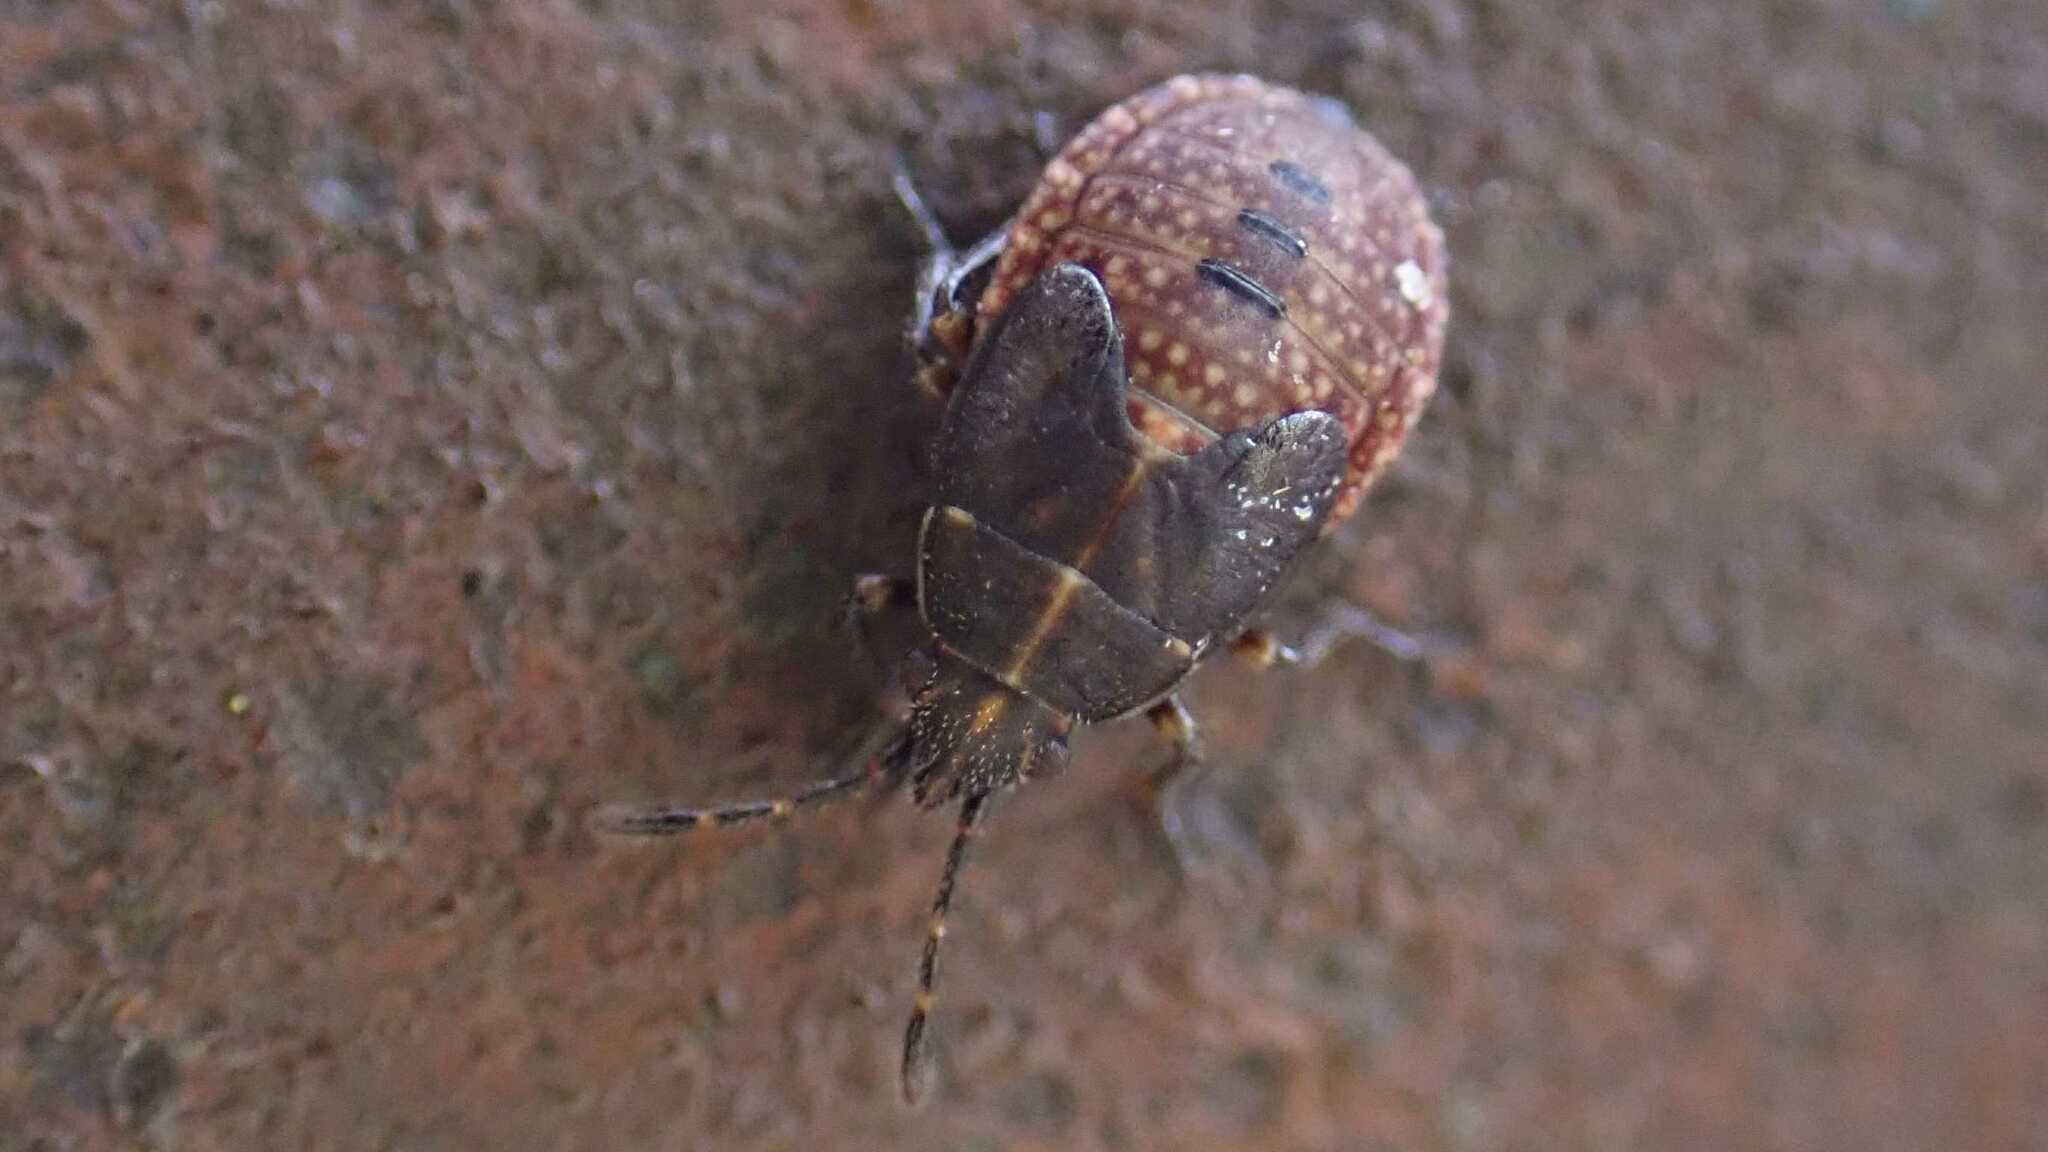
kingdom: Animalia
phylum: Arthropoda
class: Insecta
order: Hemiptera
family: Lygaeidae
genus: Kleidocerys
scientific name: Kleidocerys resedae
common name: Birch catkin bug
